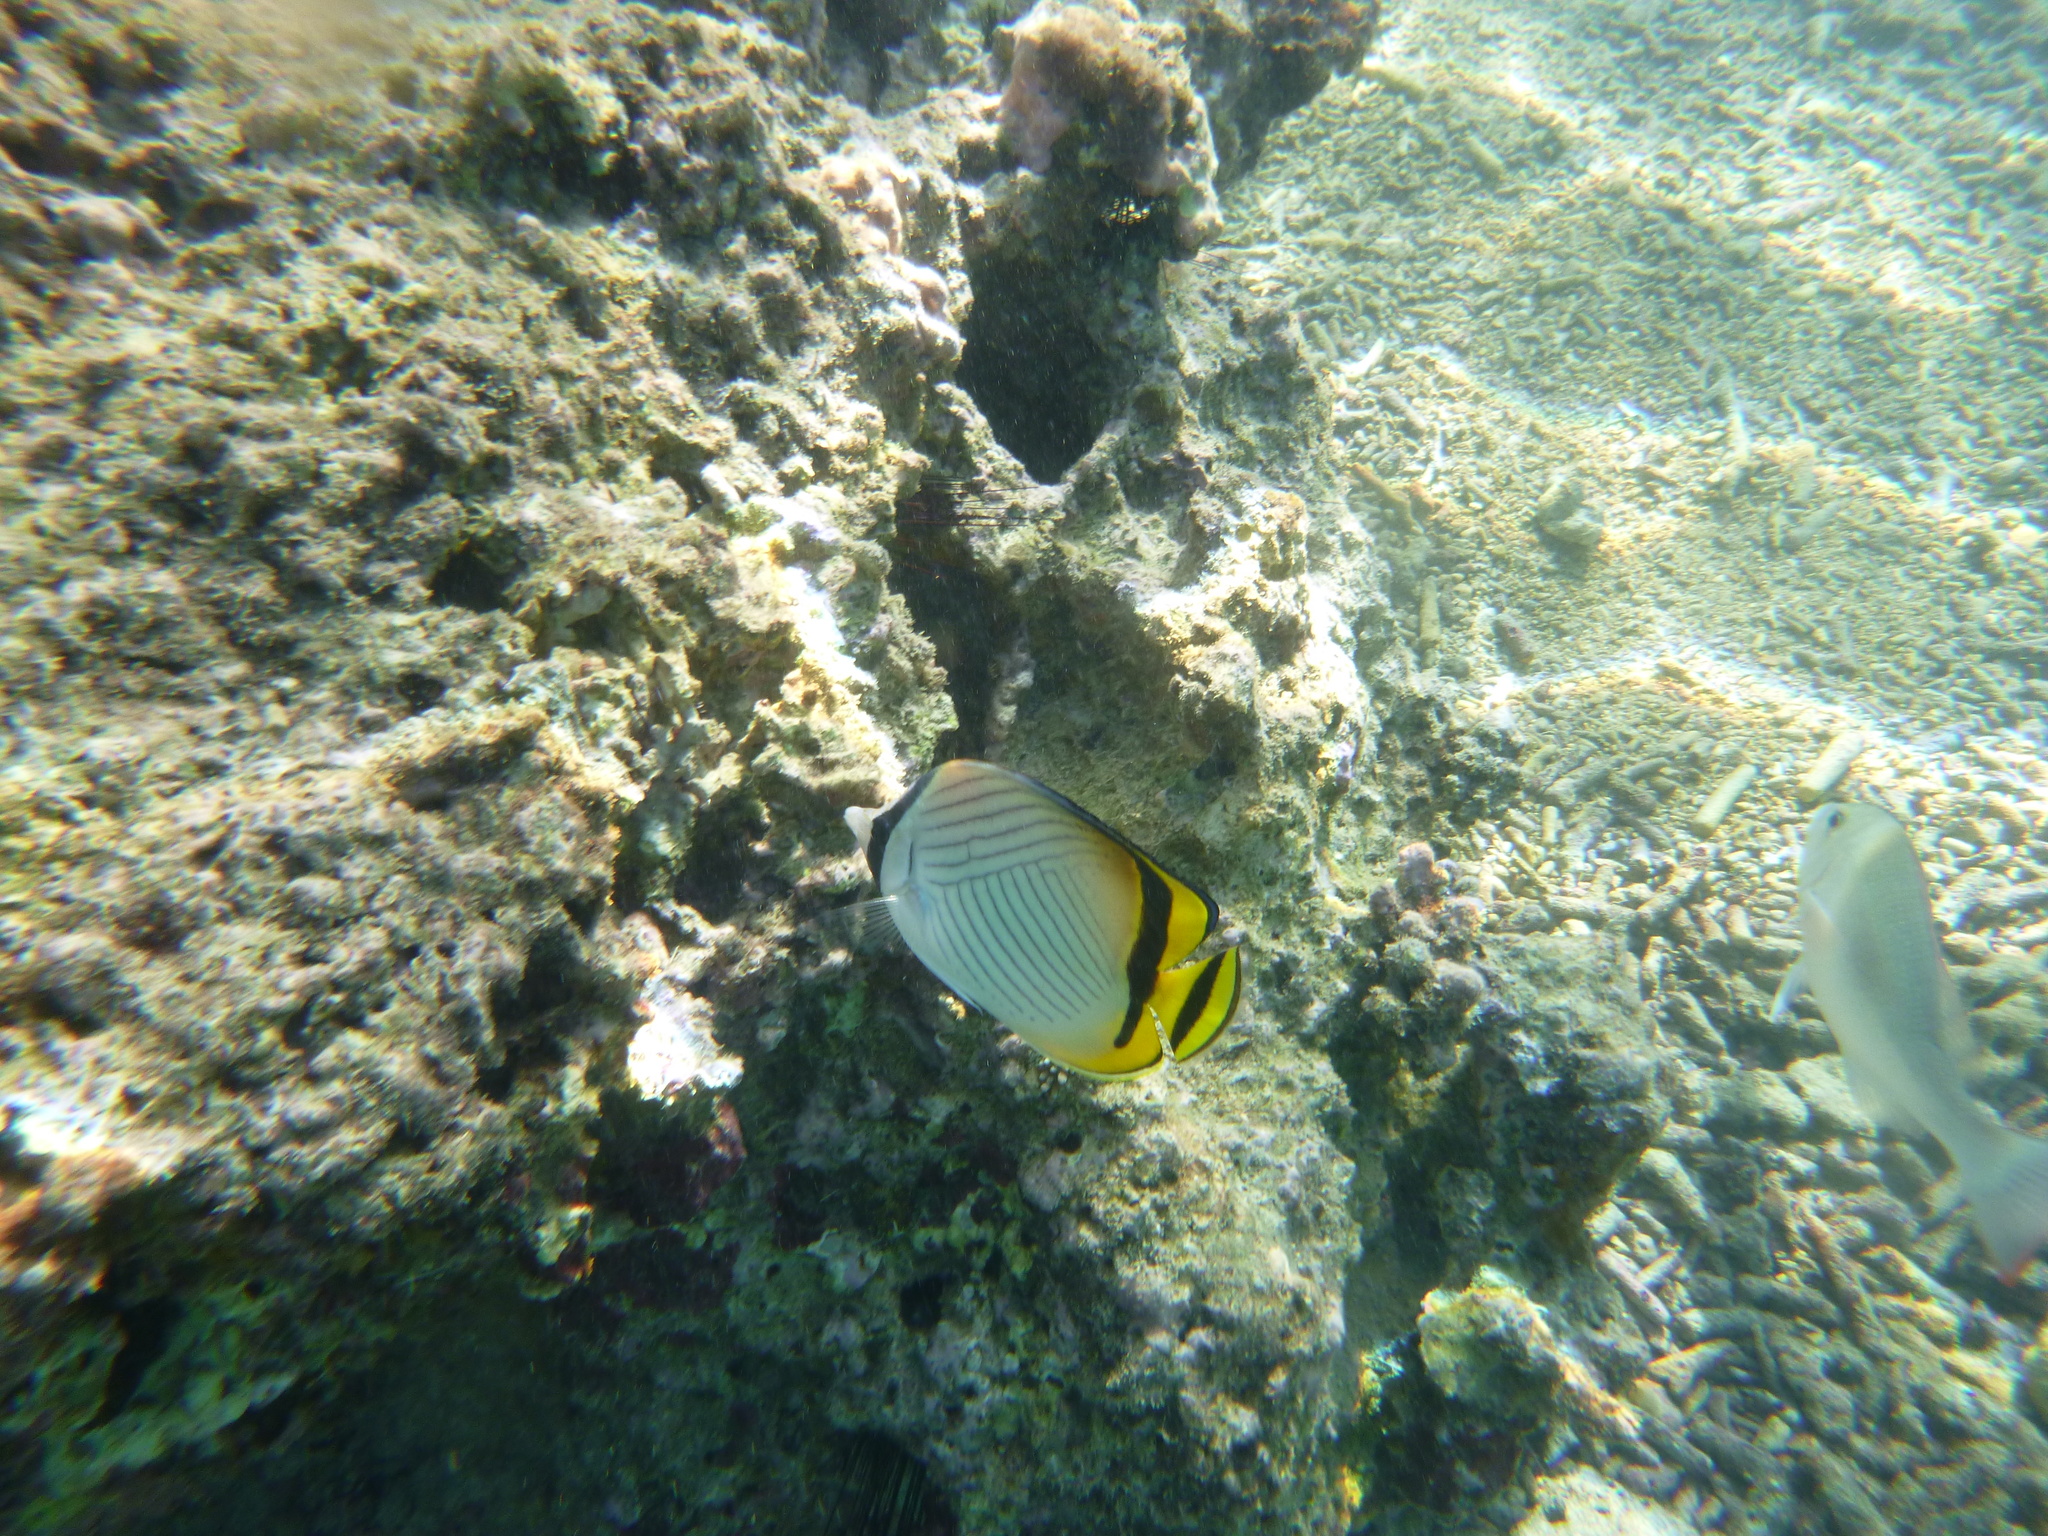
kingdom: Animalia
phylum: Chordata
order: Perciformes
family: Chaetodontidae
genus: Chaetodon
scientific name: Chaetodon vagabundus
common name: Vagabond butterflyfish
